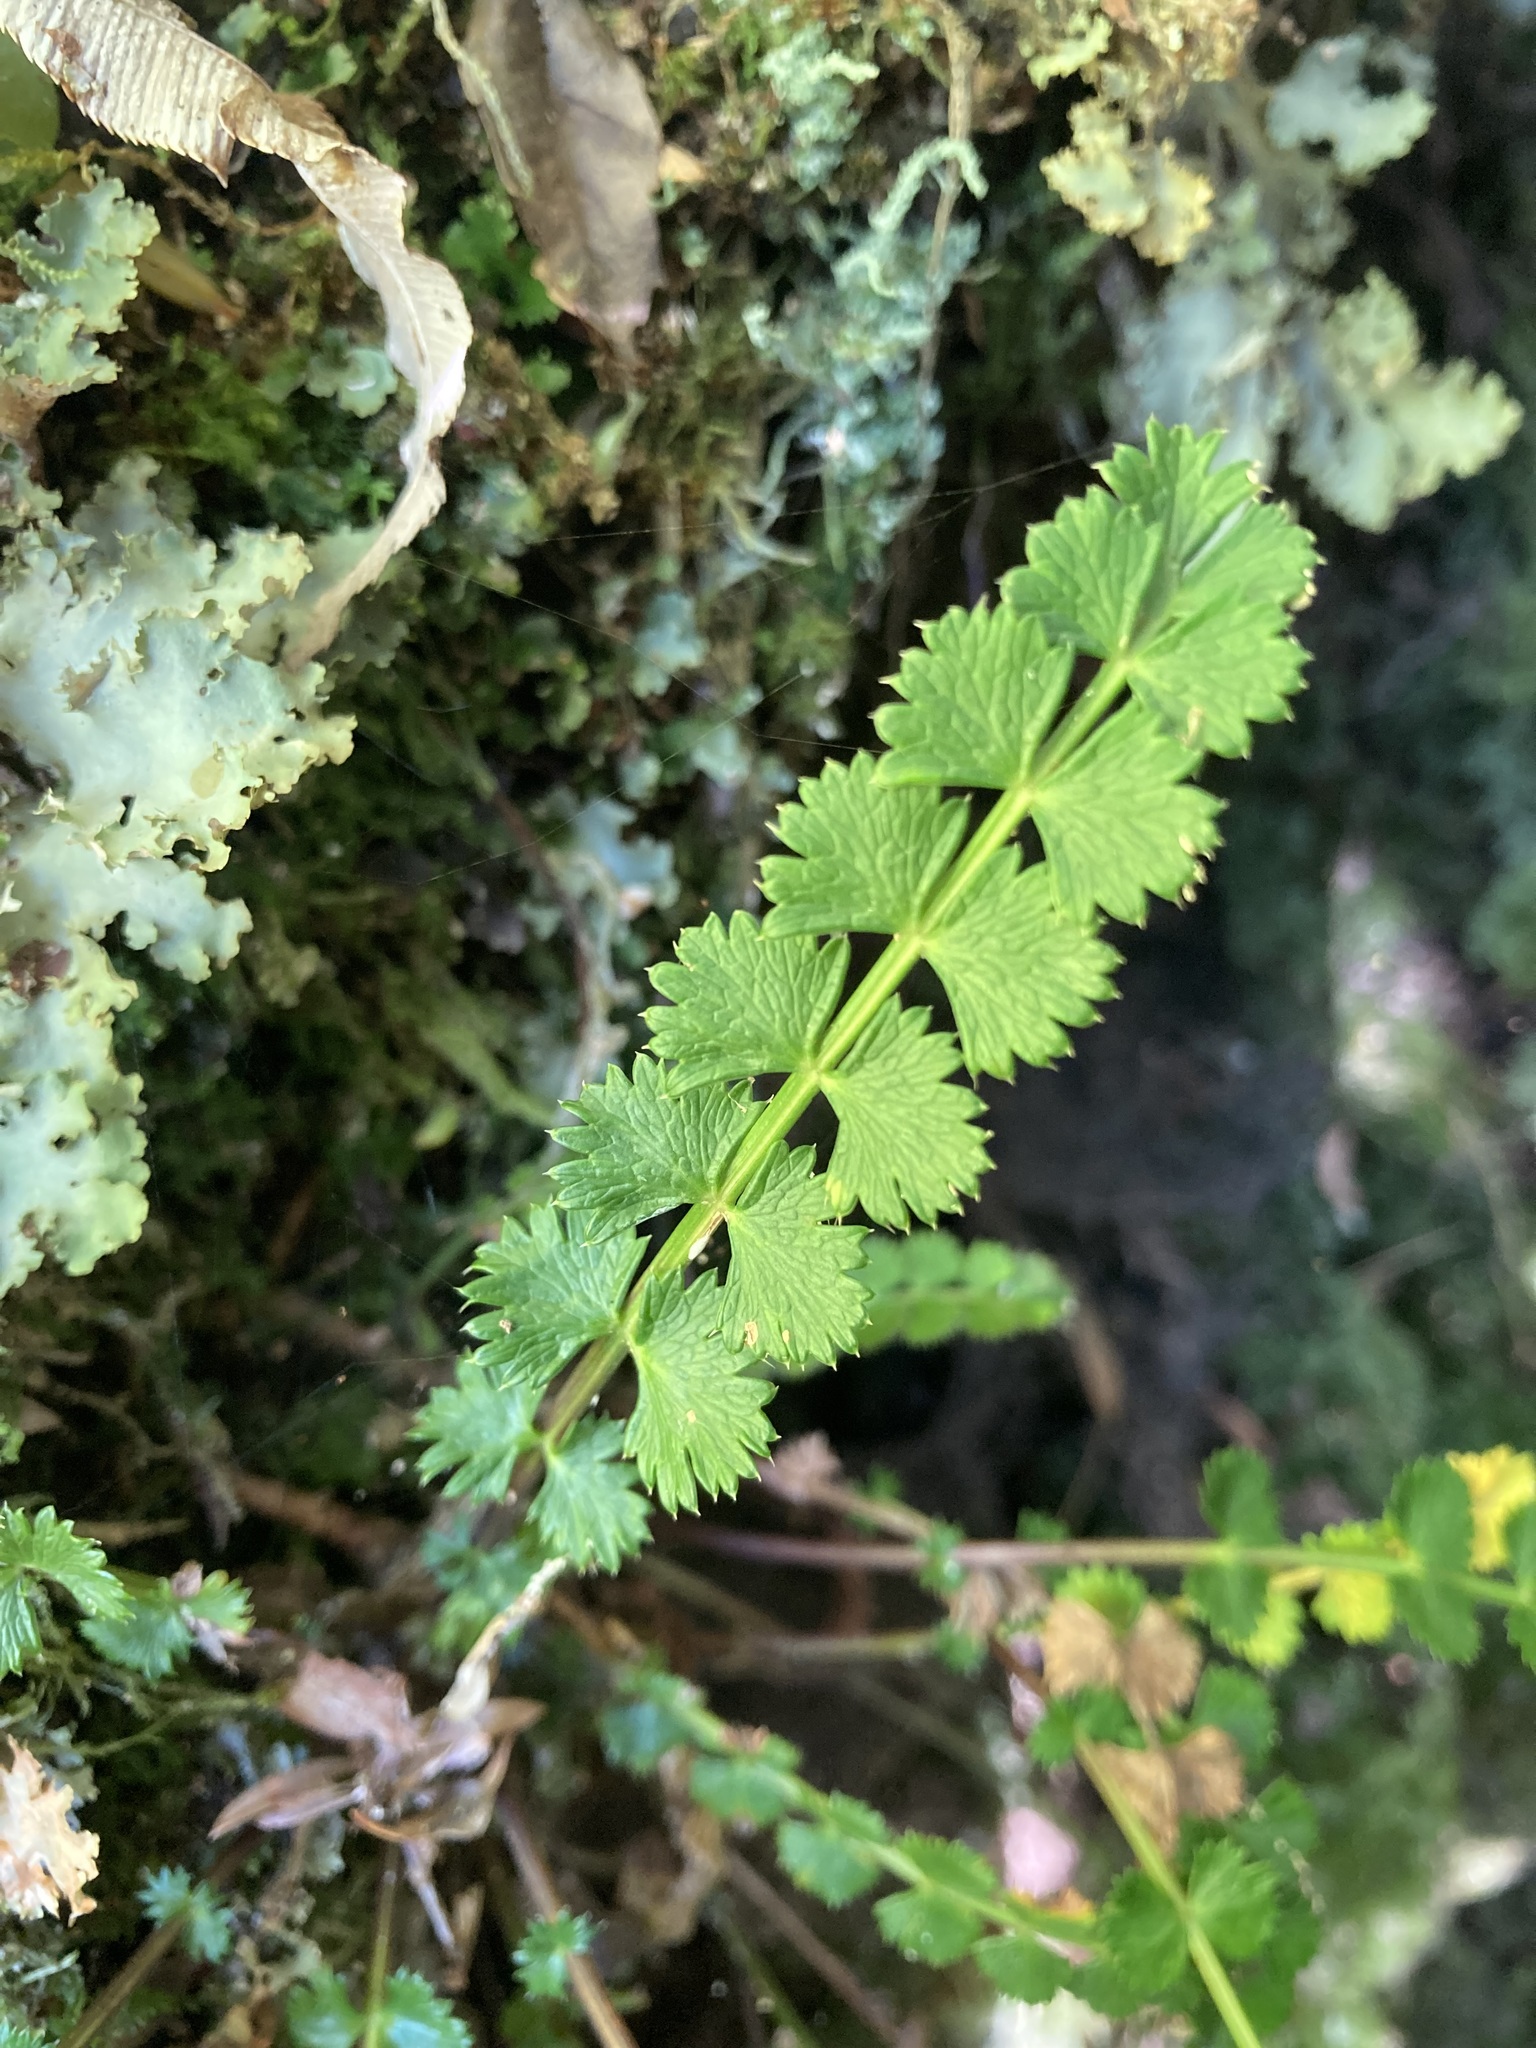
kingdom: Plantae
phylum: Tracheophyta
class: Magnoliopsida
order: Apiales
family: Apiaceae
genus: Anisotome
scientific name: Anisotome aromatica
